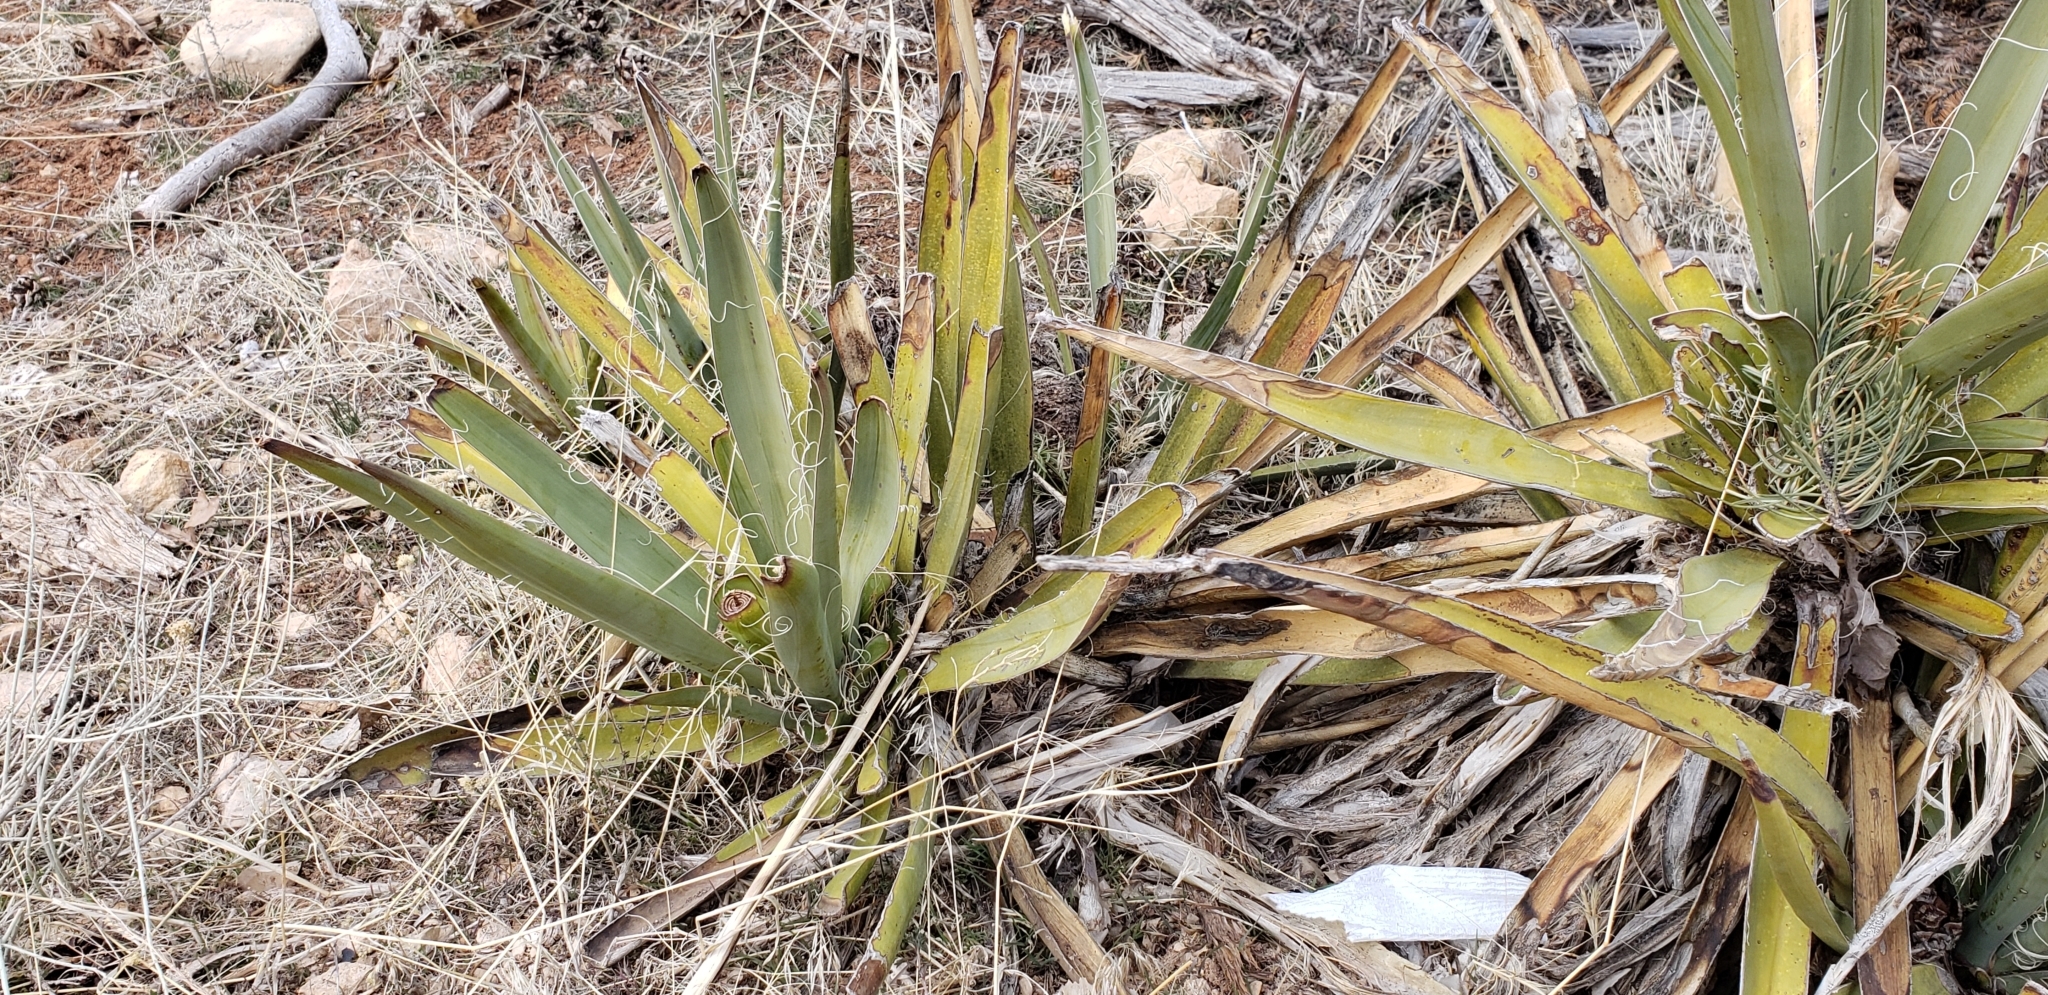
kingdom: Plantae
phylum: Tracheophyta
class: Liliopsida
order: Asparagales
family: Asparagaceae
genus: Yucca
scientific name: Yucca baccata
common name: Banana yucca
